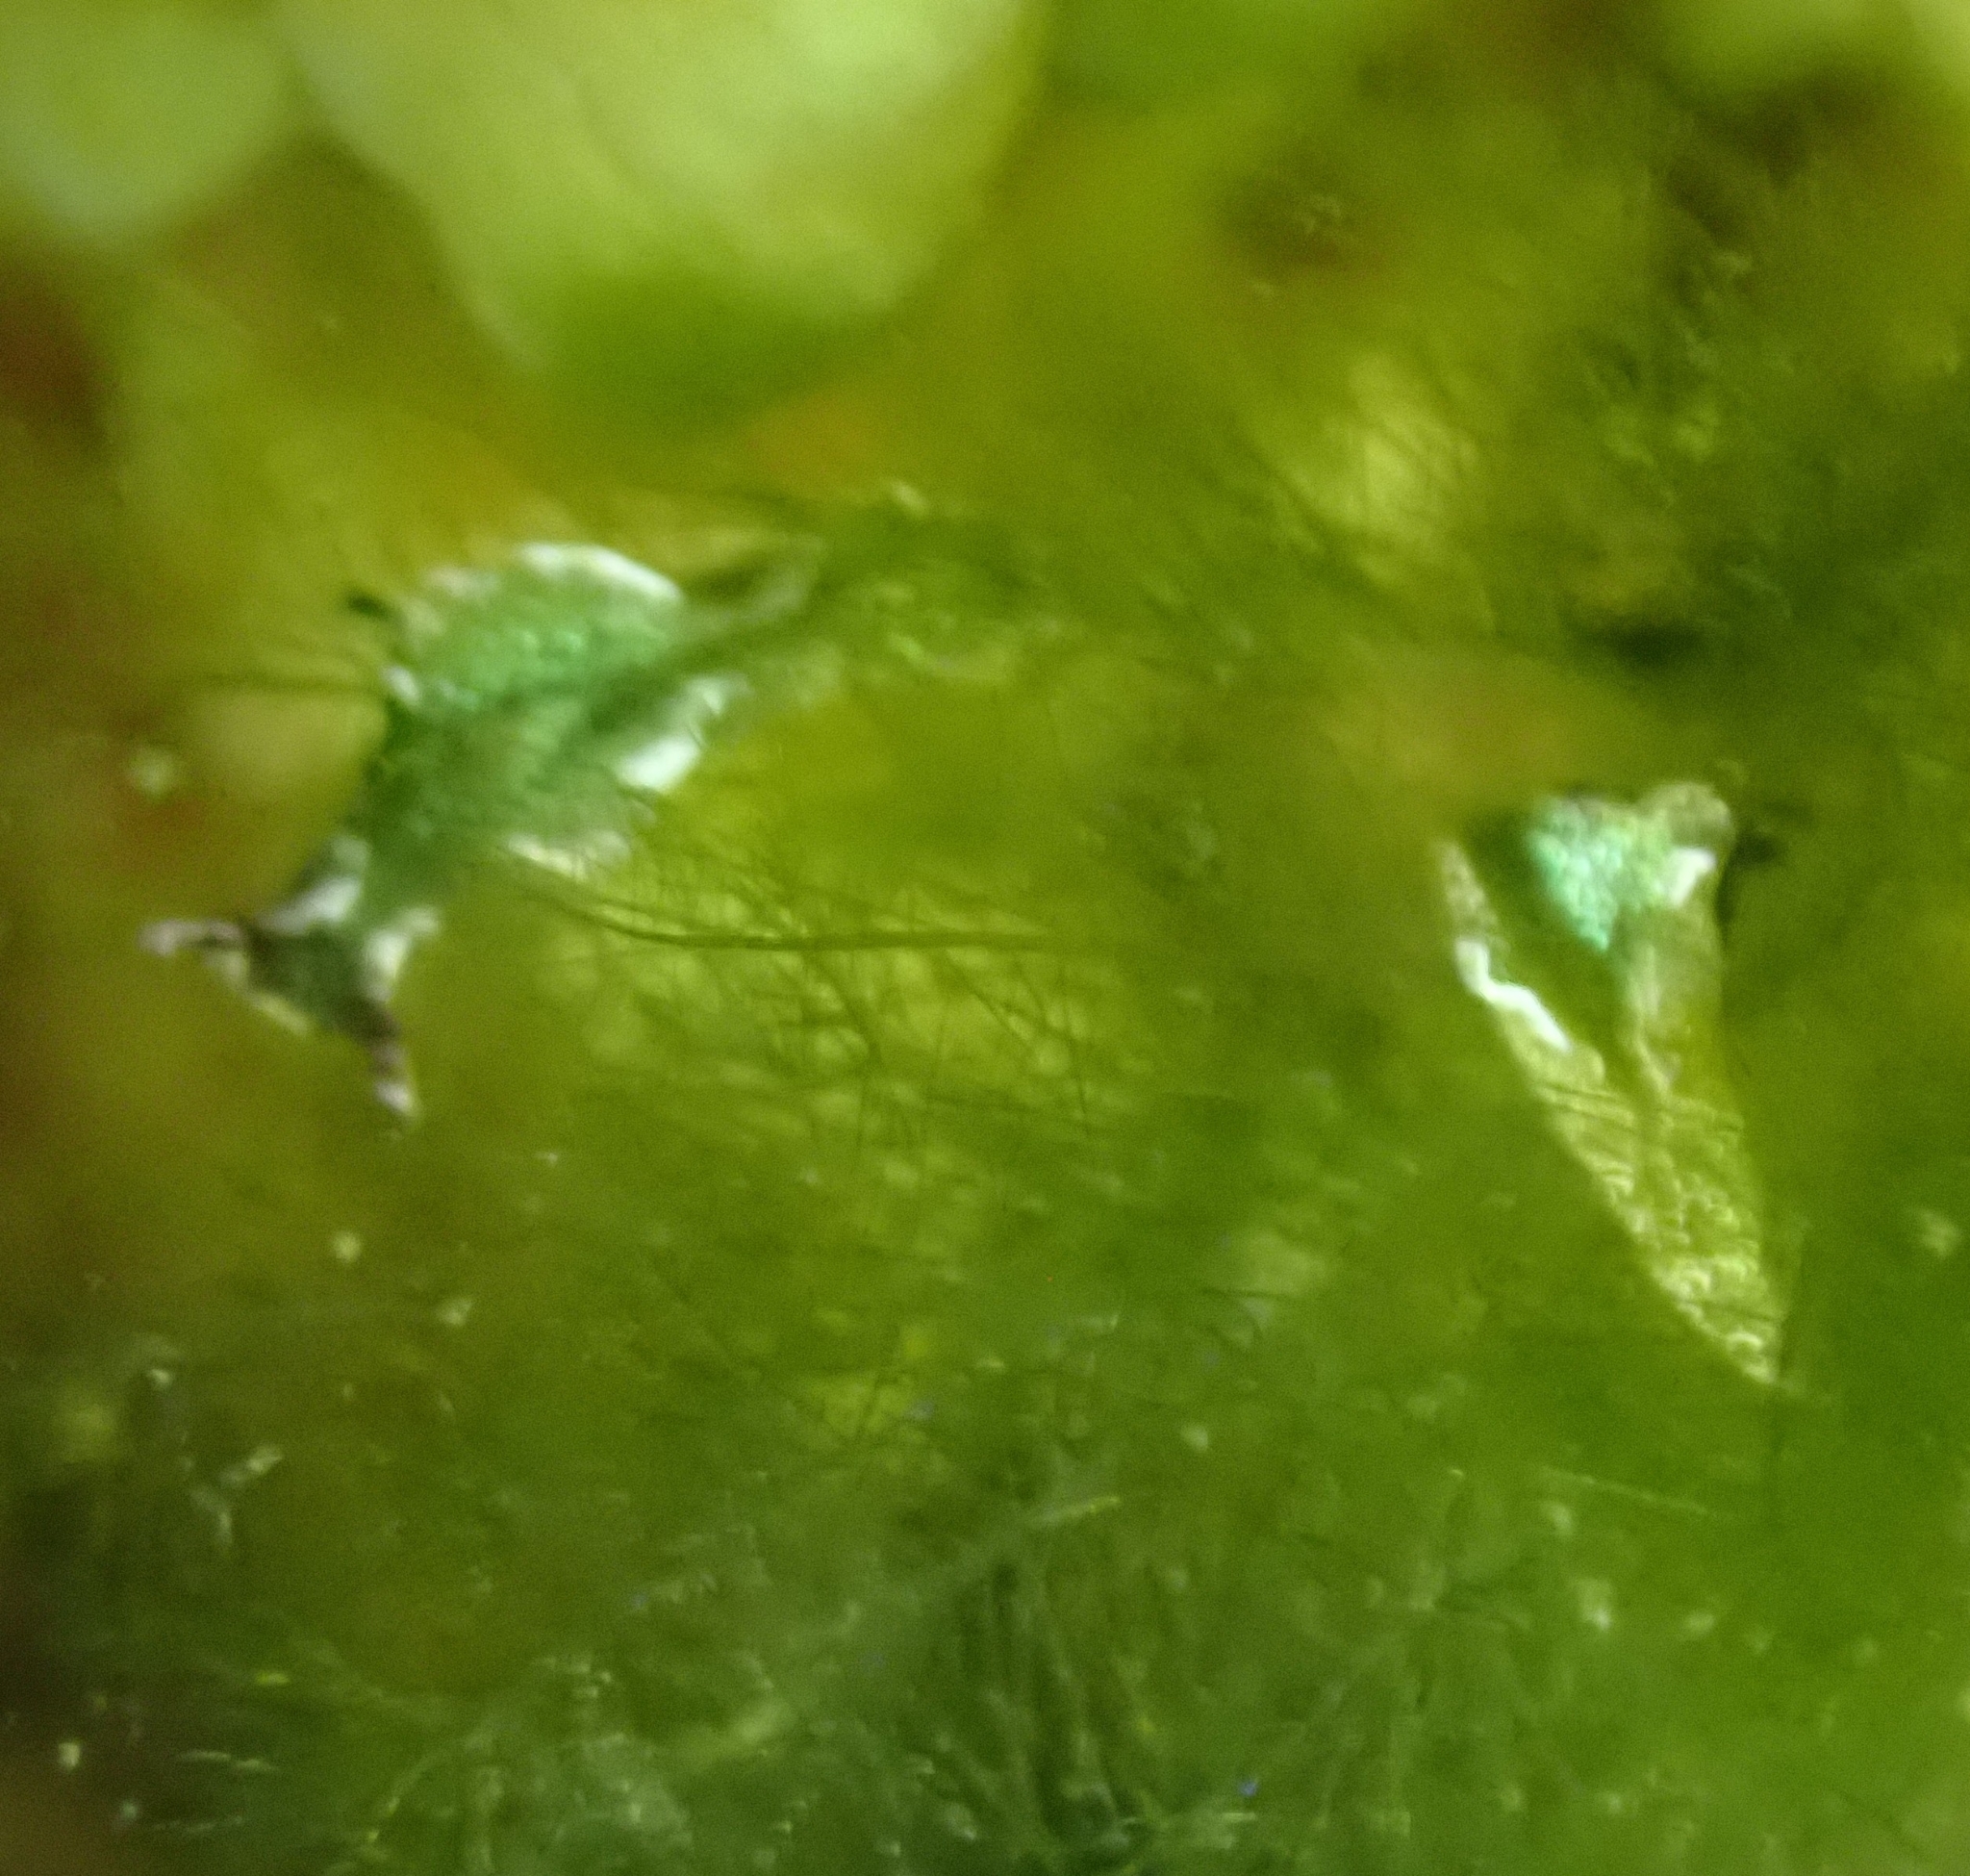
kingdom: Animalia
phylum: Mollusca
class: Gastropoda
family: Plakobranchidae
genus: Elysia
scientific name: Elysia viridis
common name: Green elysia
